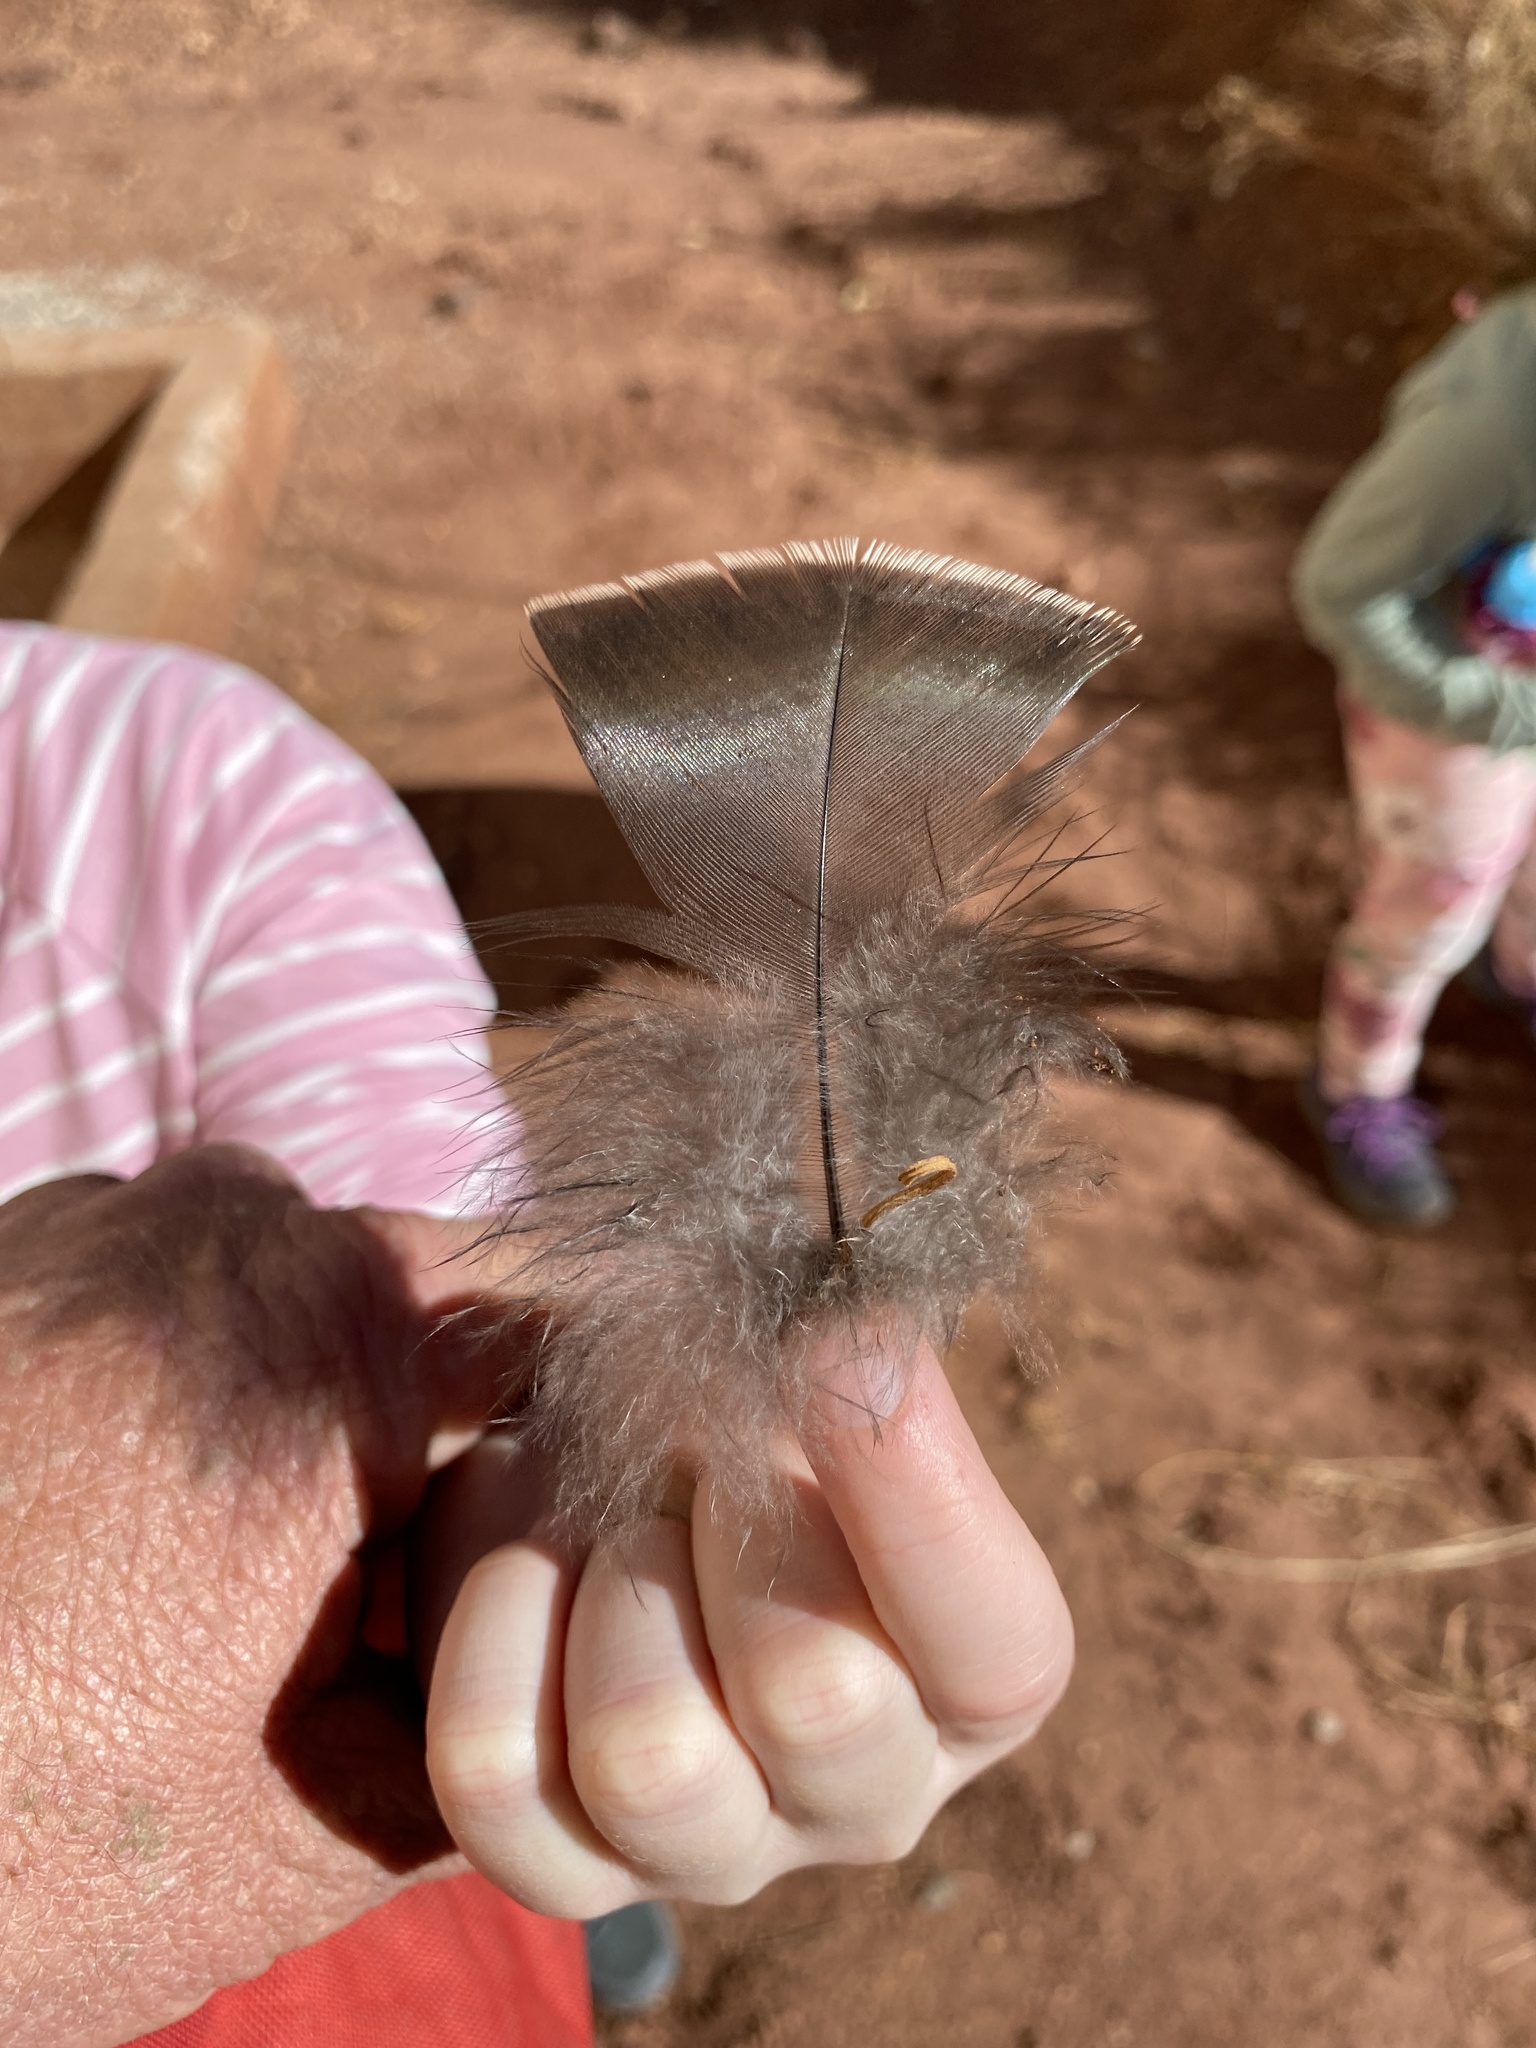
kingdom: Animalia
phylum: Chordata
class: Aves
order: Galliformes
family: Phasianidae
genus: Meleagris
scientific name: Meleagris gallopavo
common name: Wild turkey
